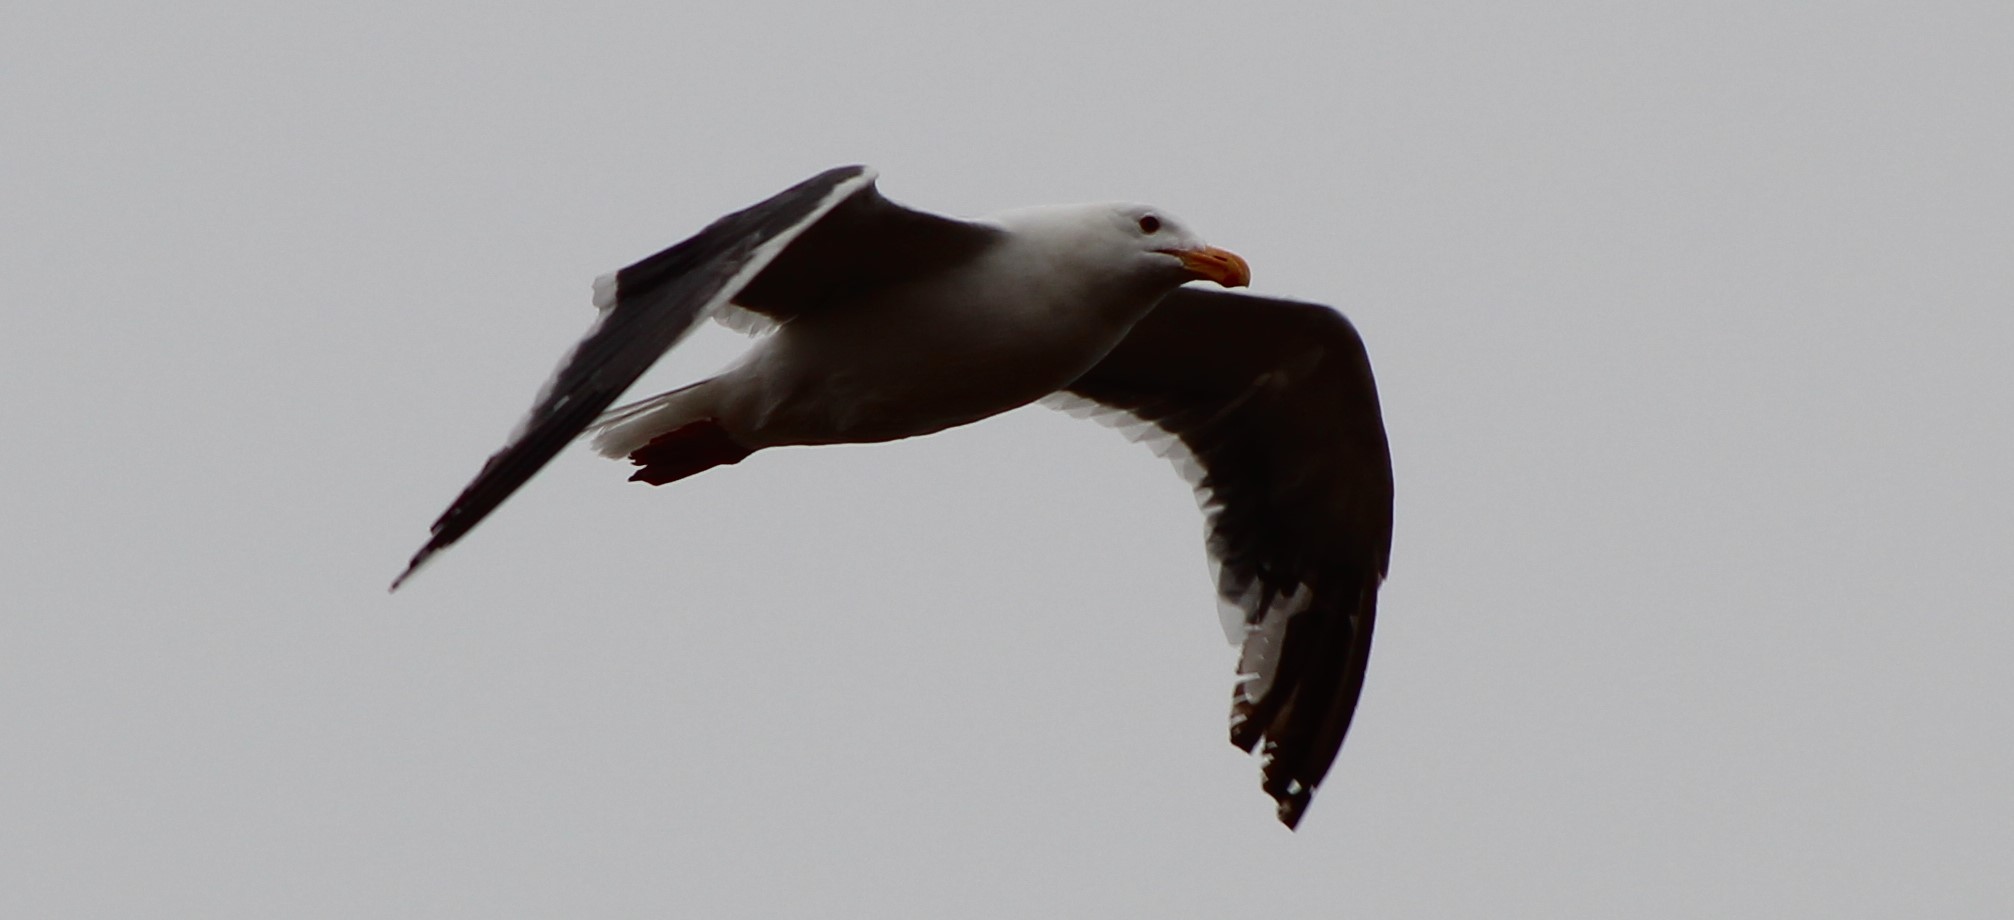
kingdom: Animalia
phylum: Chordata
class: Aves
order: Charadriiformes
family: Laridae
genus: Larus
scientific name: Larus occidentalis
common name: Western gull
